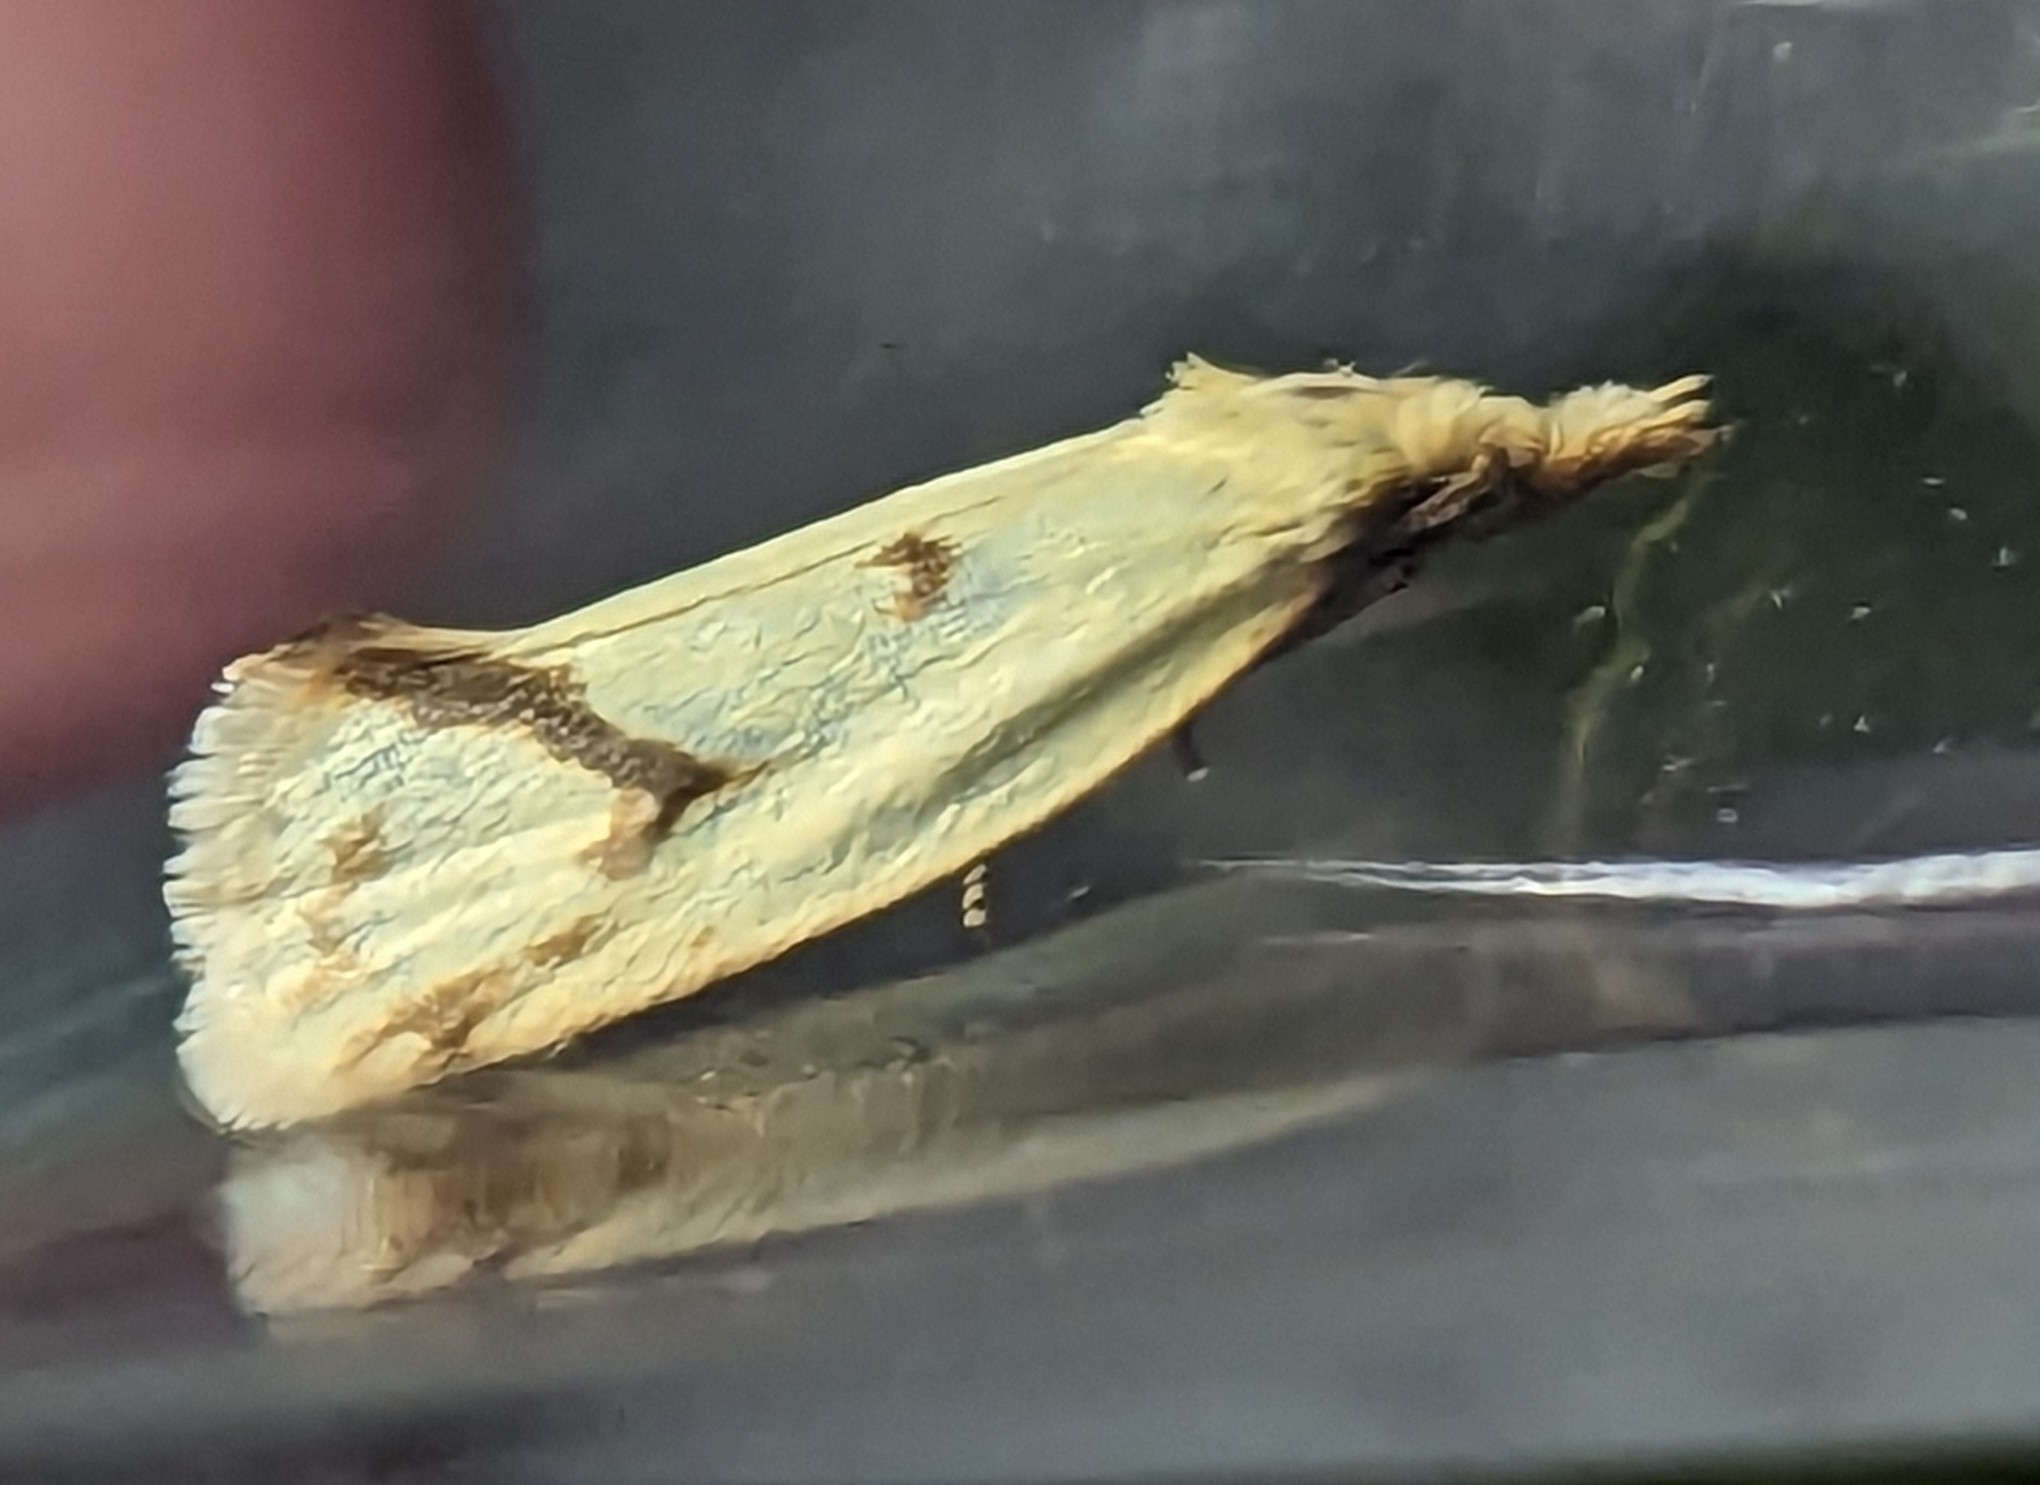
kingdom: Animalia
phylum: Arthropoda
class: Insecta
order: Lepidoptera
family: Tortricidae
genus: Agapeta
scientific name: Agapeta hamana
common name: Common yellow conch
